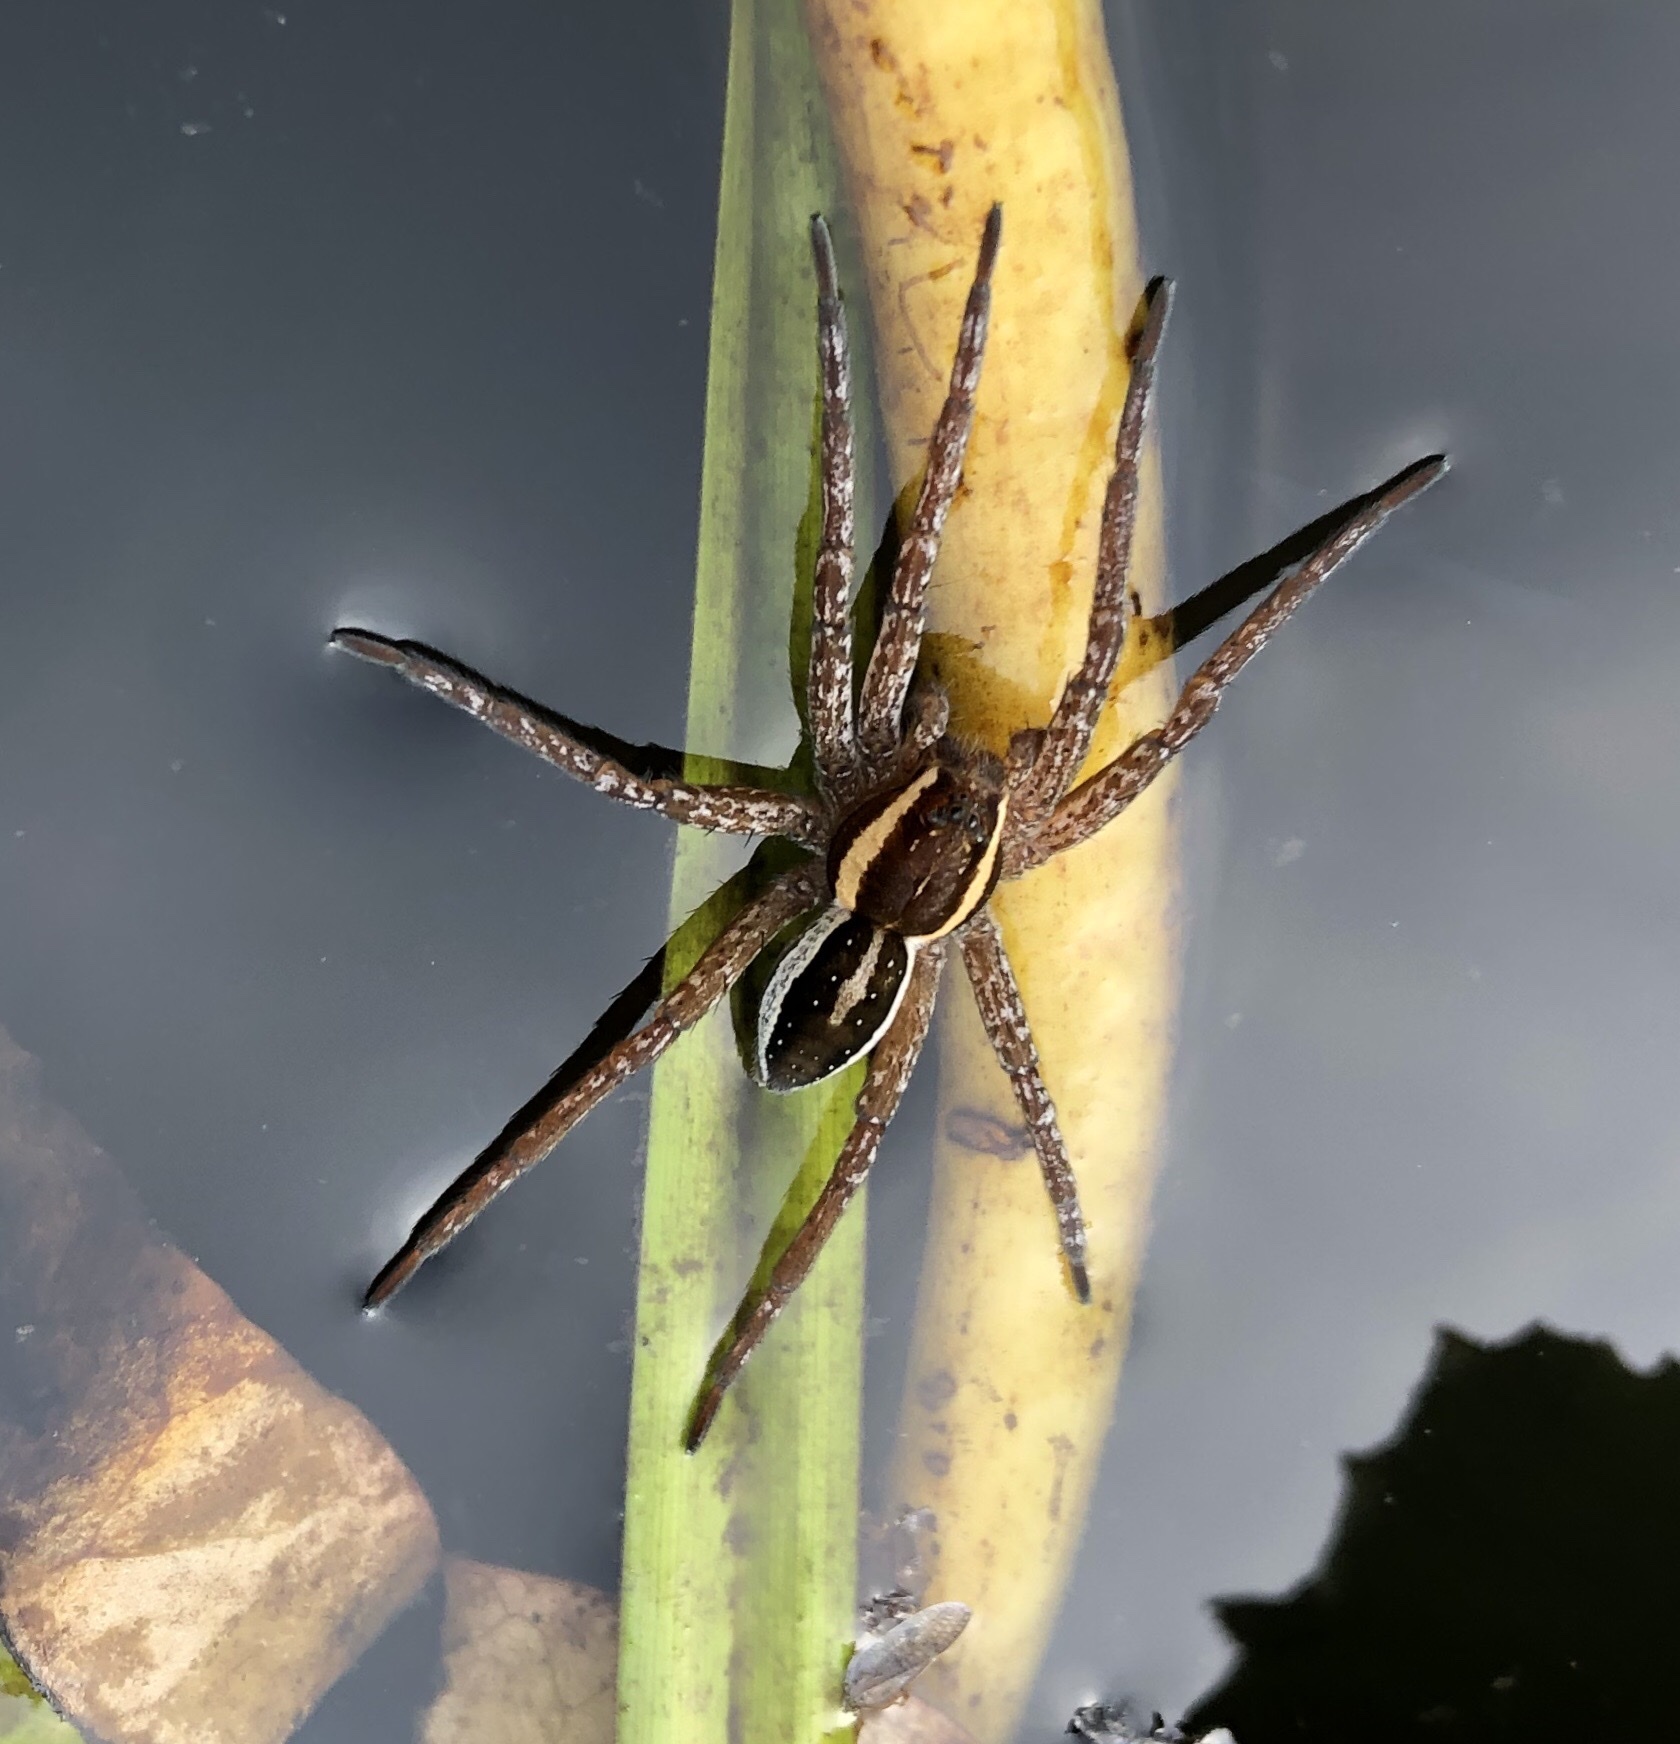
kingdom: Animalia
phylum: Arthropoda
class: Arachnida
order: Araneae
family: Pisauridae
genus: Dolomedes
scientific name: Dolomedes fimbriatus
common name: Raft spider
